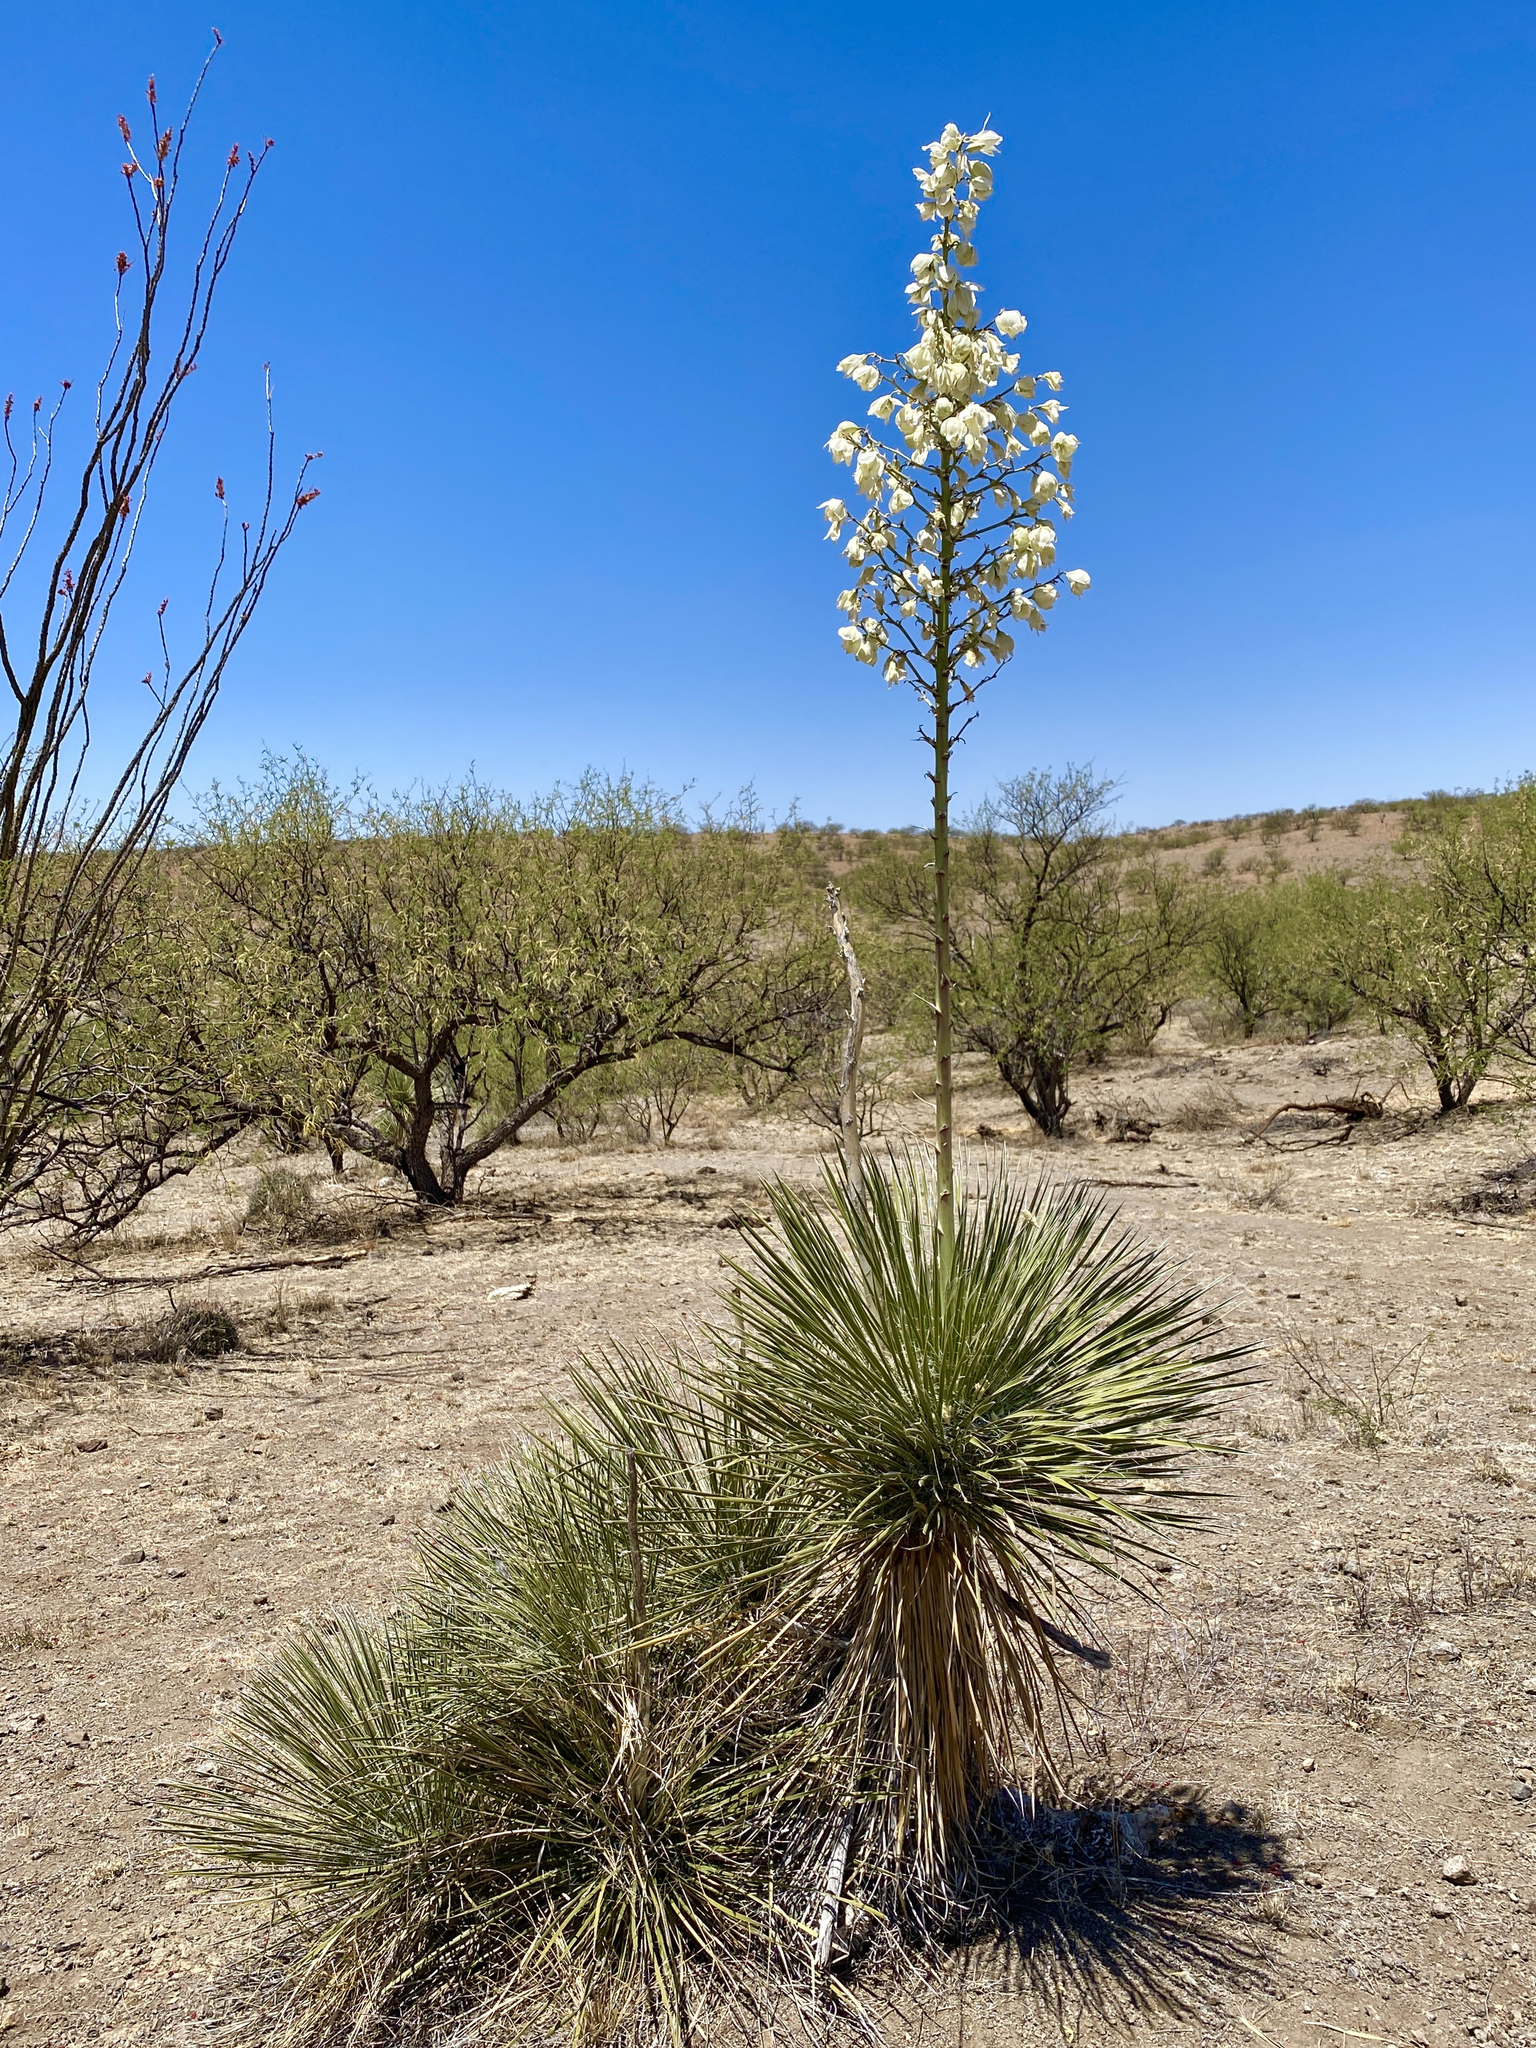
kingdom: Plantae
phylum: Tracheophyta
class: Liliopsida
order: Asparagales
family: Asparagaceae
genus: Yucca
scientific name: Yucca elata
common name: Palmella
